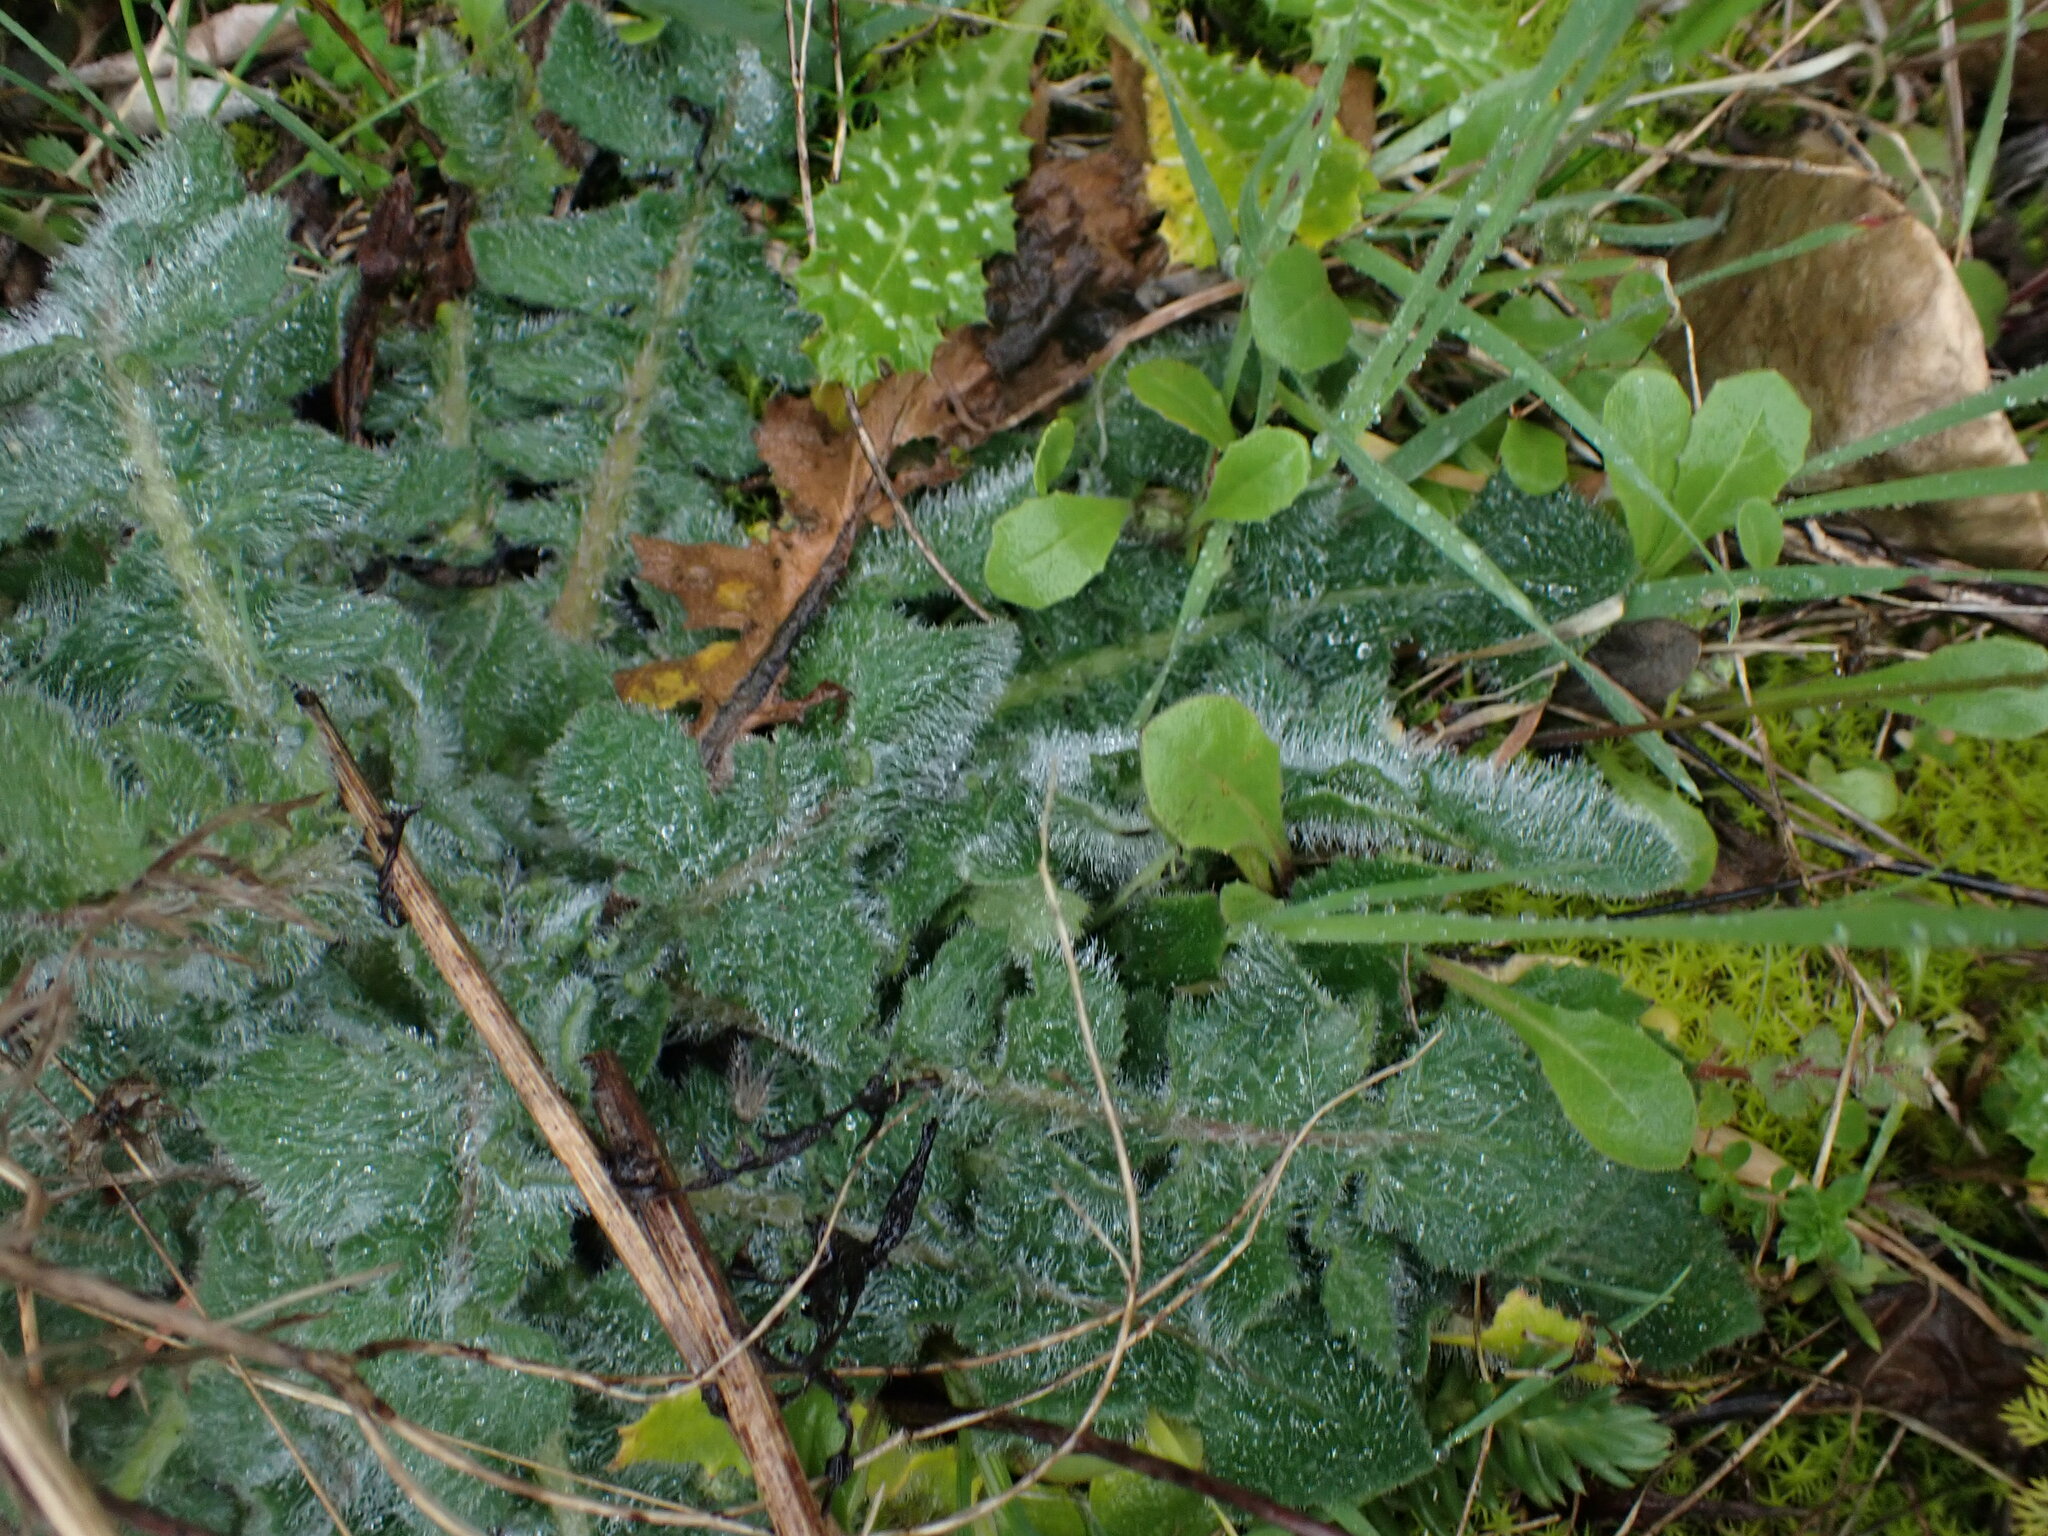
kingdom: Plantae
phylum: Tracheophyta
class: Magnoliopsida
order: Asterales
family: Asteraceae
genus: Mantisalca
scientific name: Mantisalca salmantica
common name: Dagger flower
